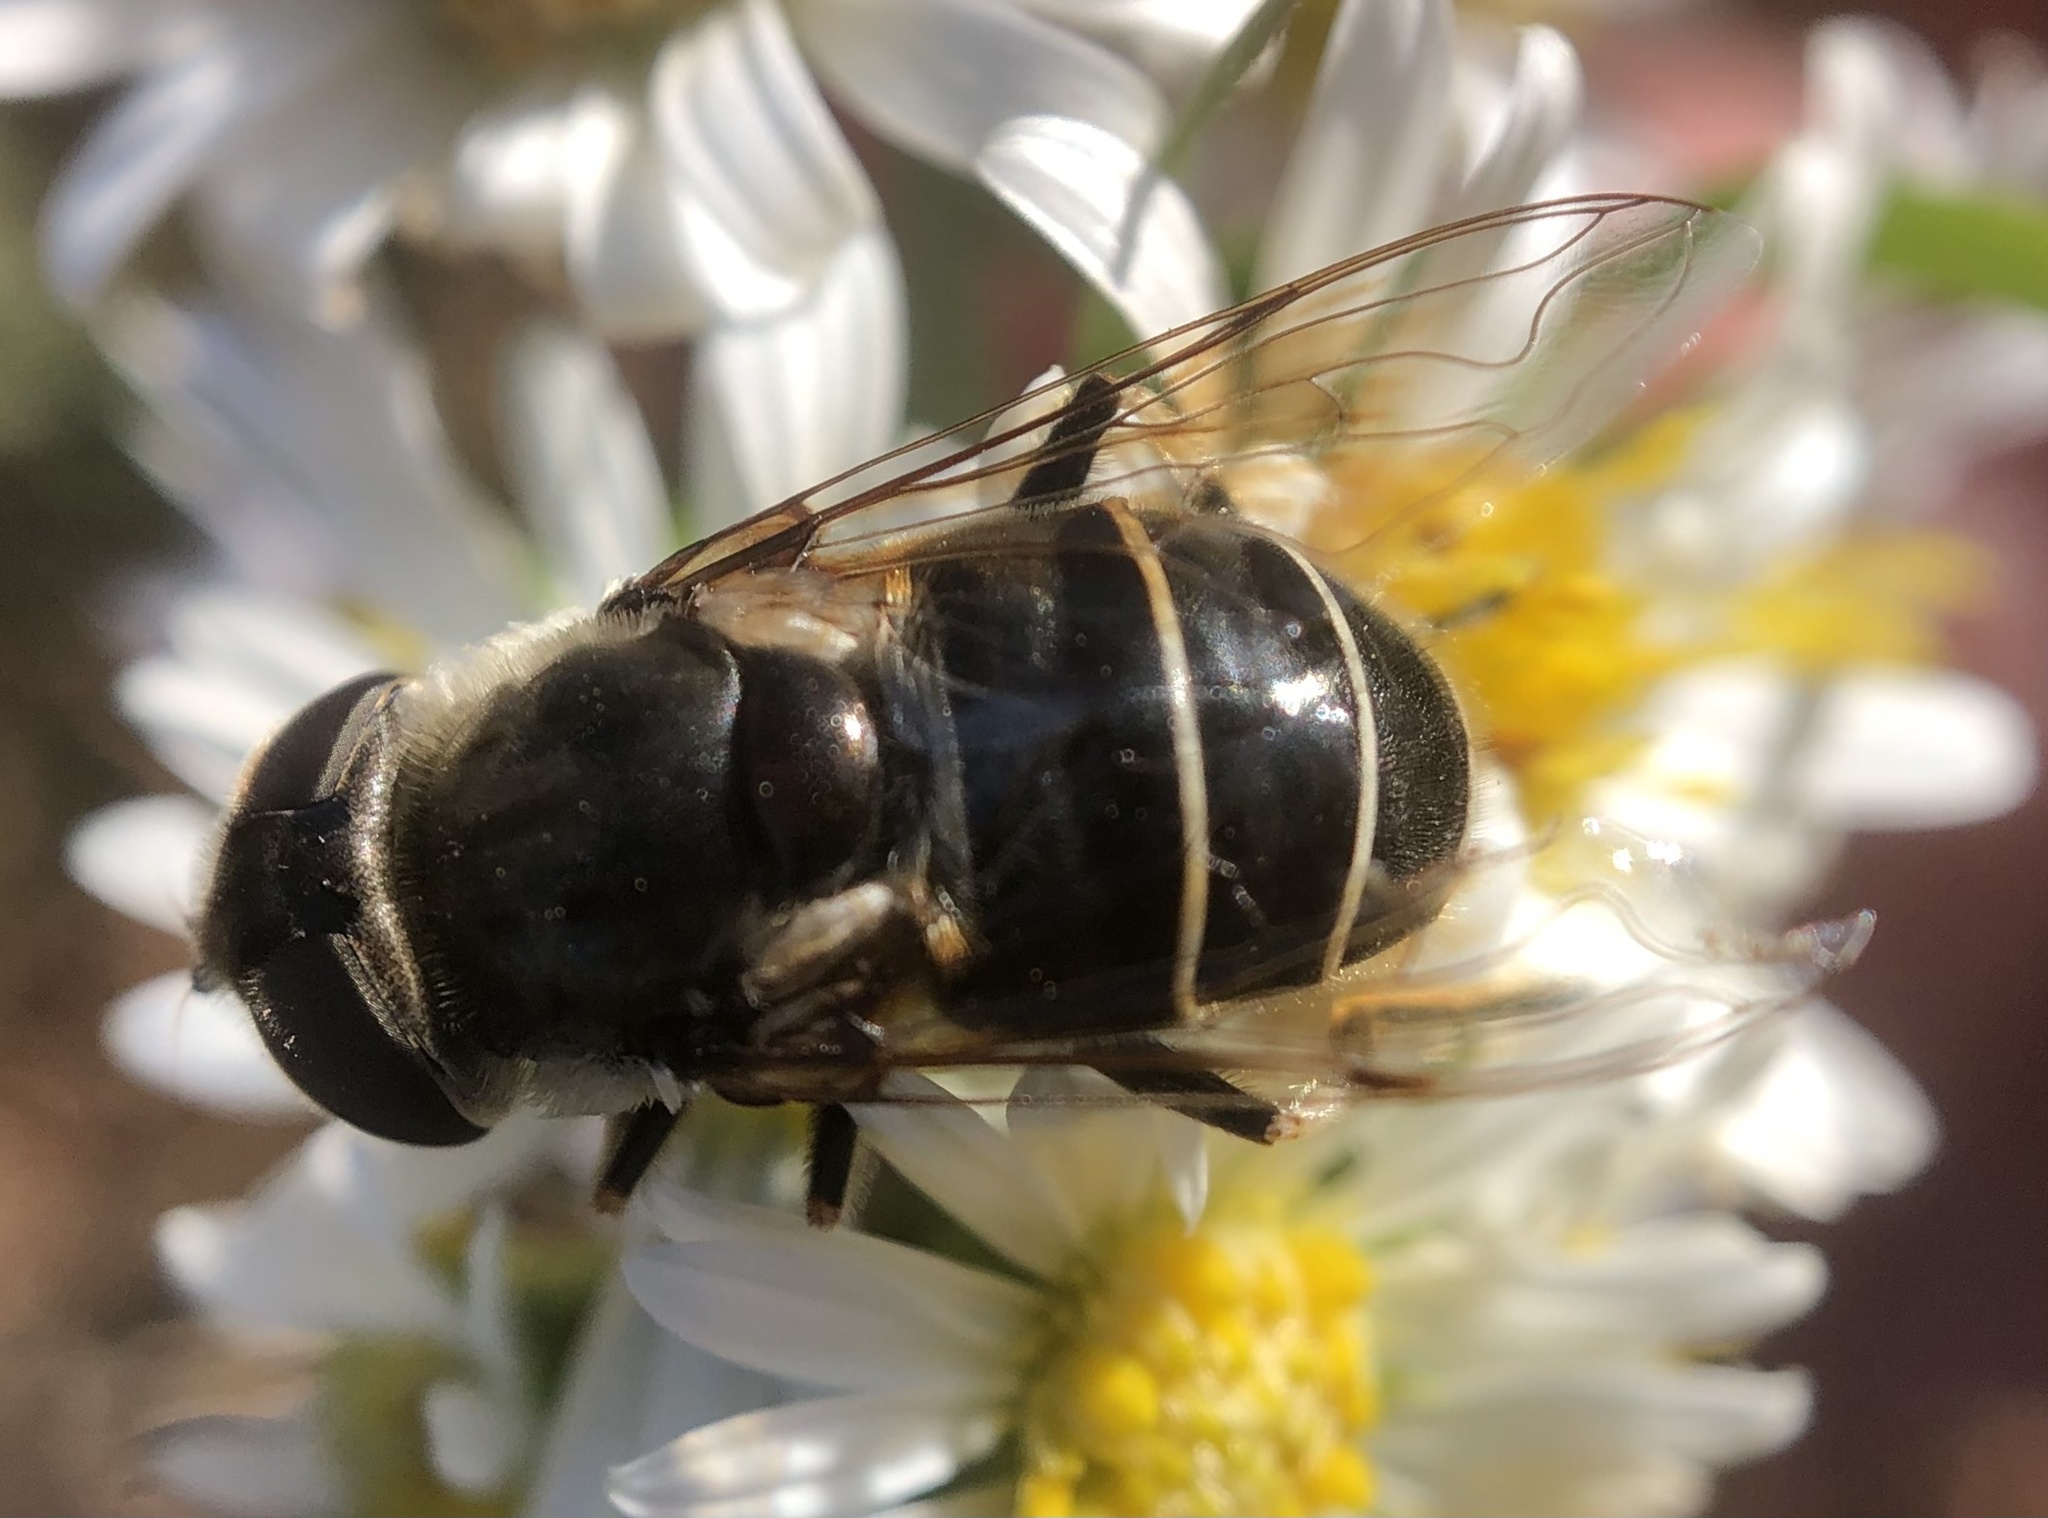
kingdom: Animalia
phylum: Arthropoda
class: Insecta
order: Diptera
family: Syrphidae
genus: Eristalis
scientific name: Eristalis dimidiata
